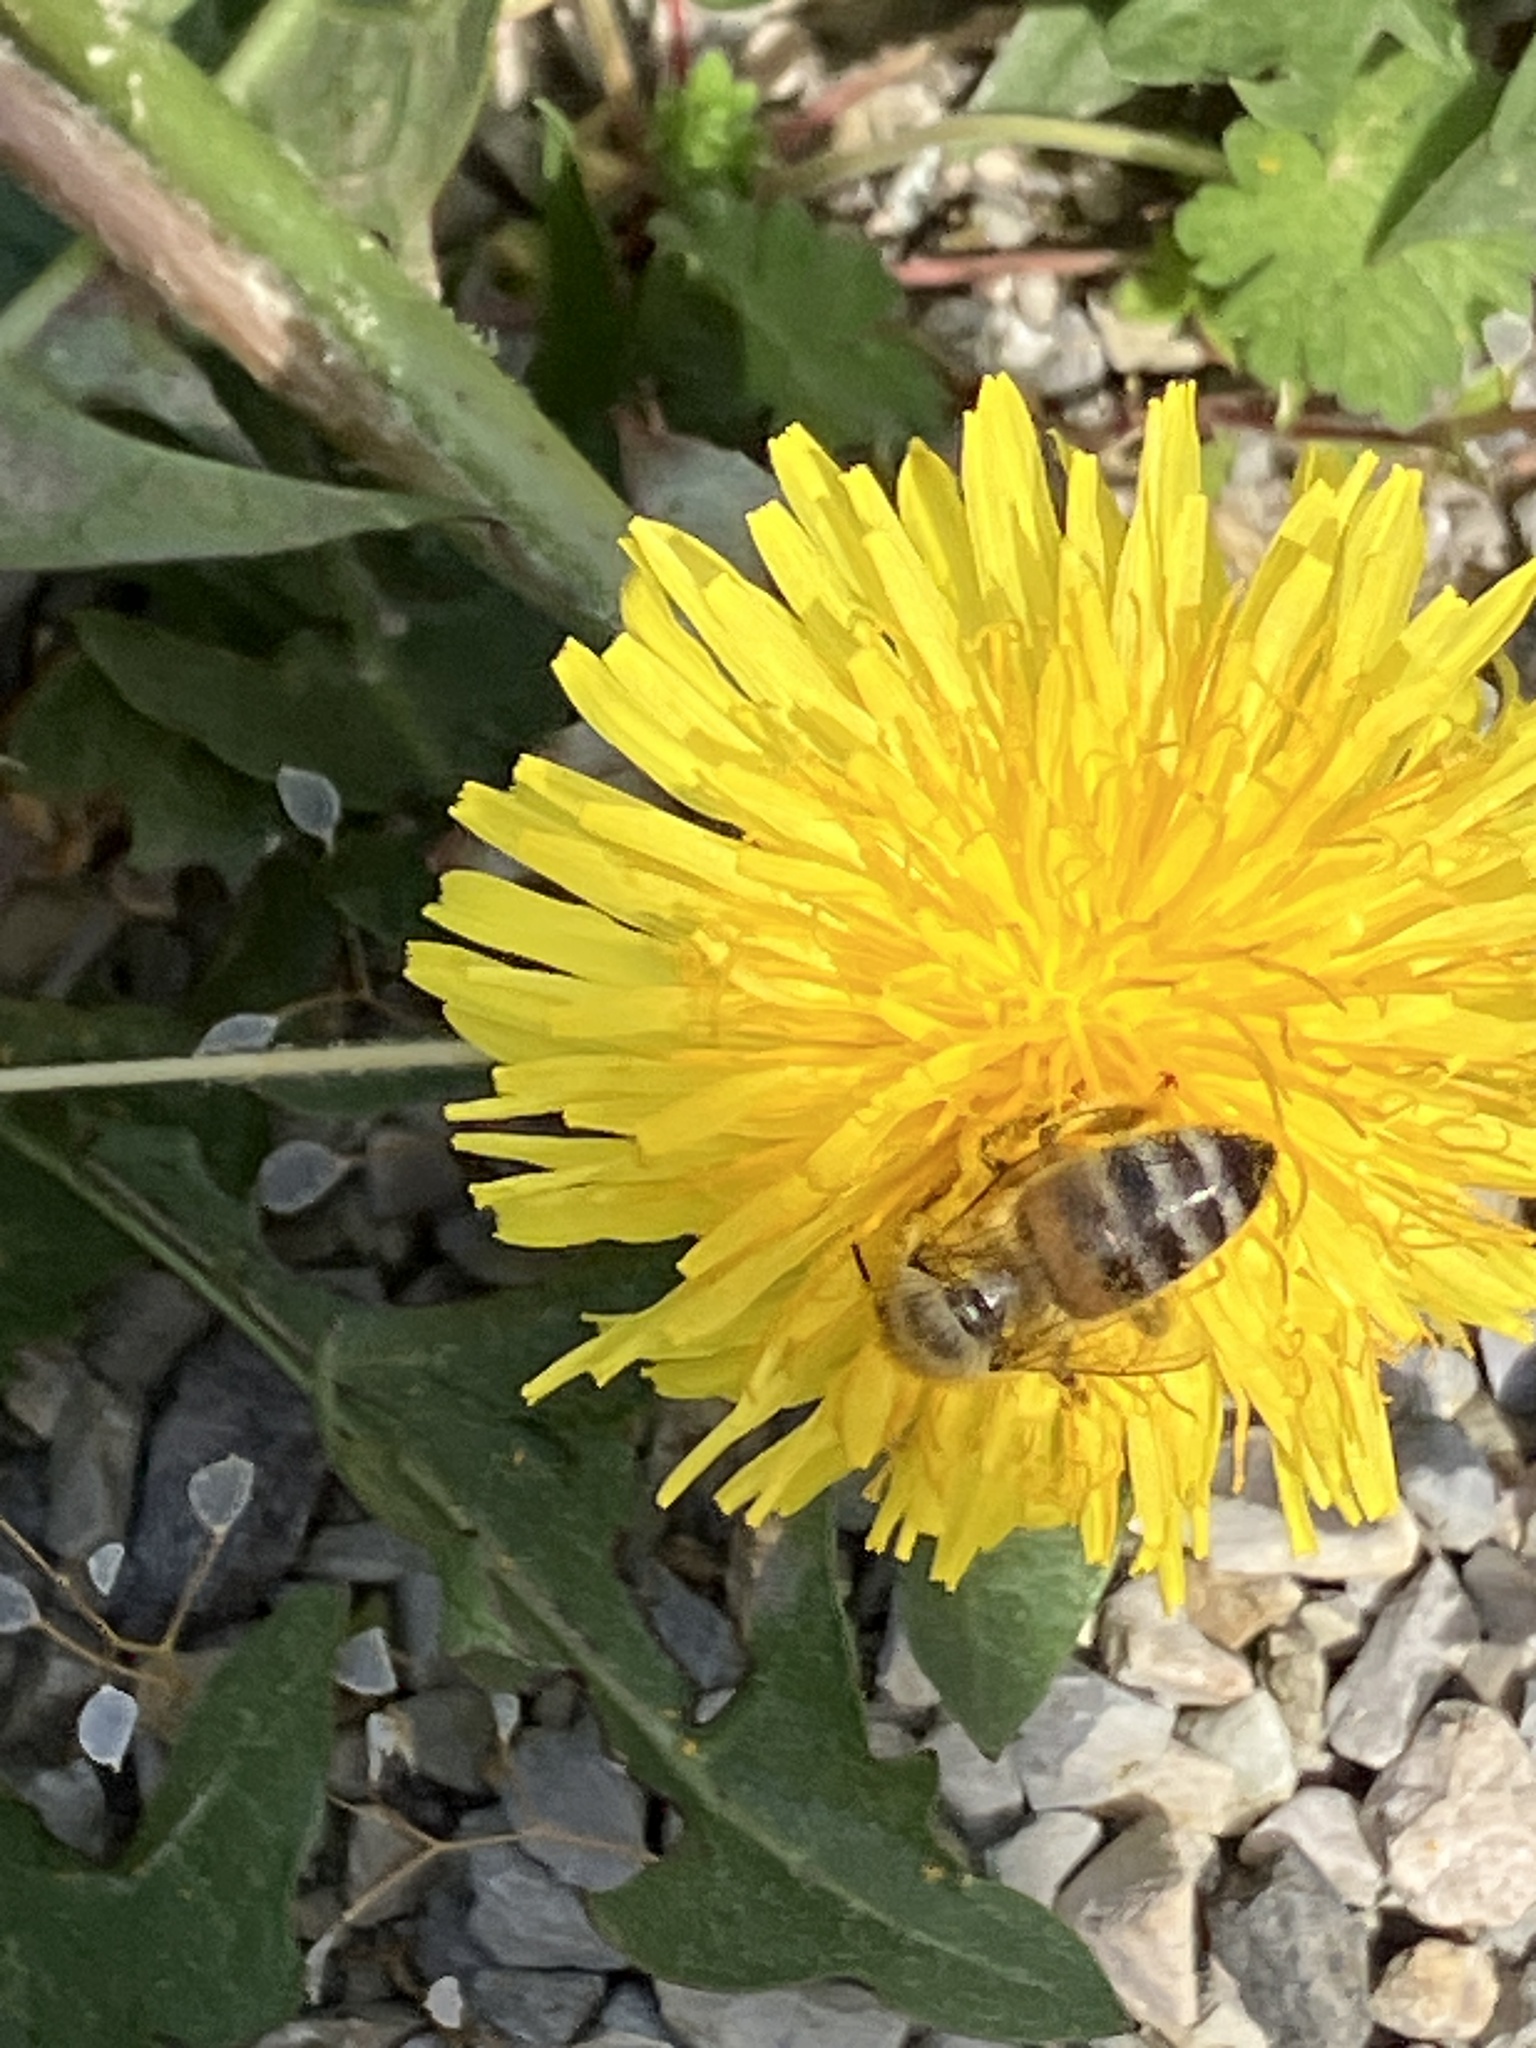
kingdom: Animalia
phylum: Arthropoda
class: Insecta
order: Hymenoptera
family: Apidae
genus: Apis
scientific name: Apis mellifera
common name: Honey bee
